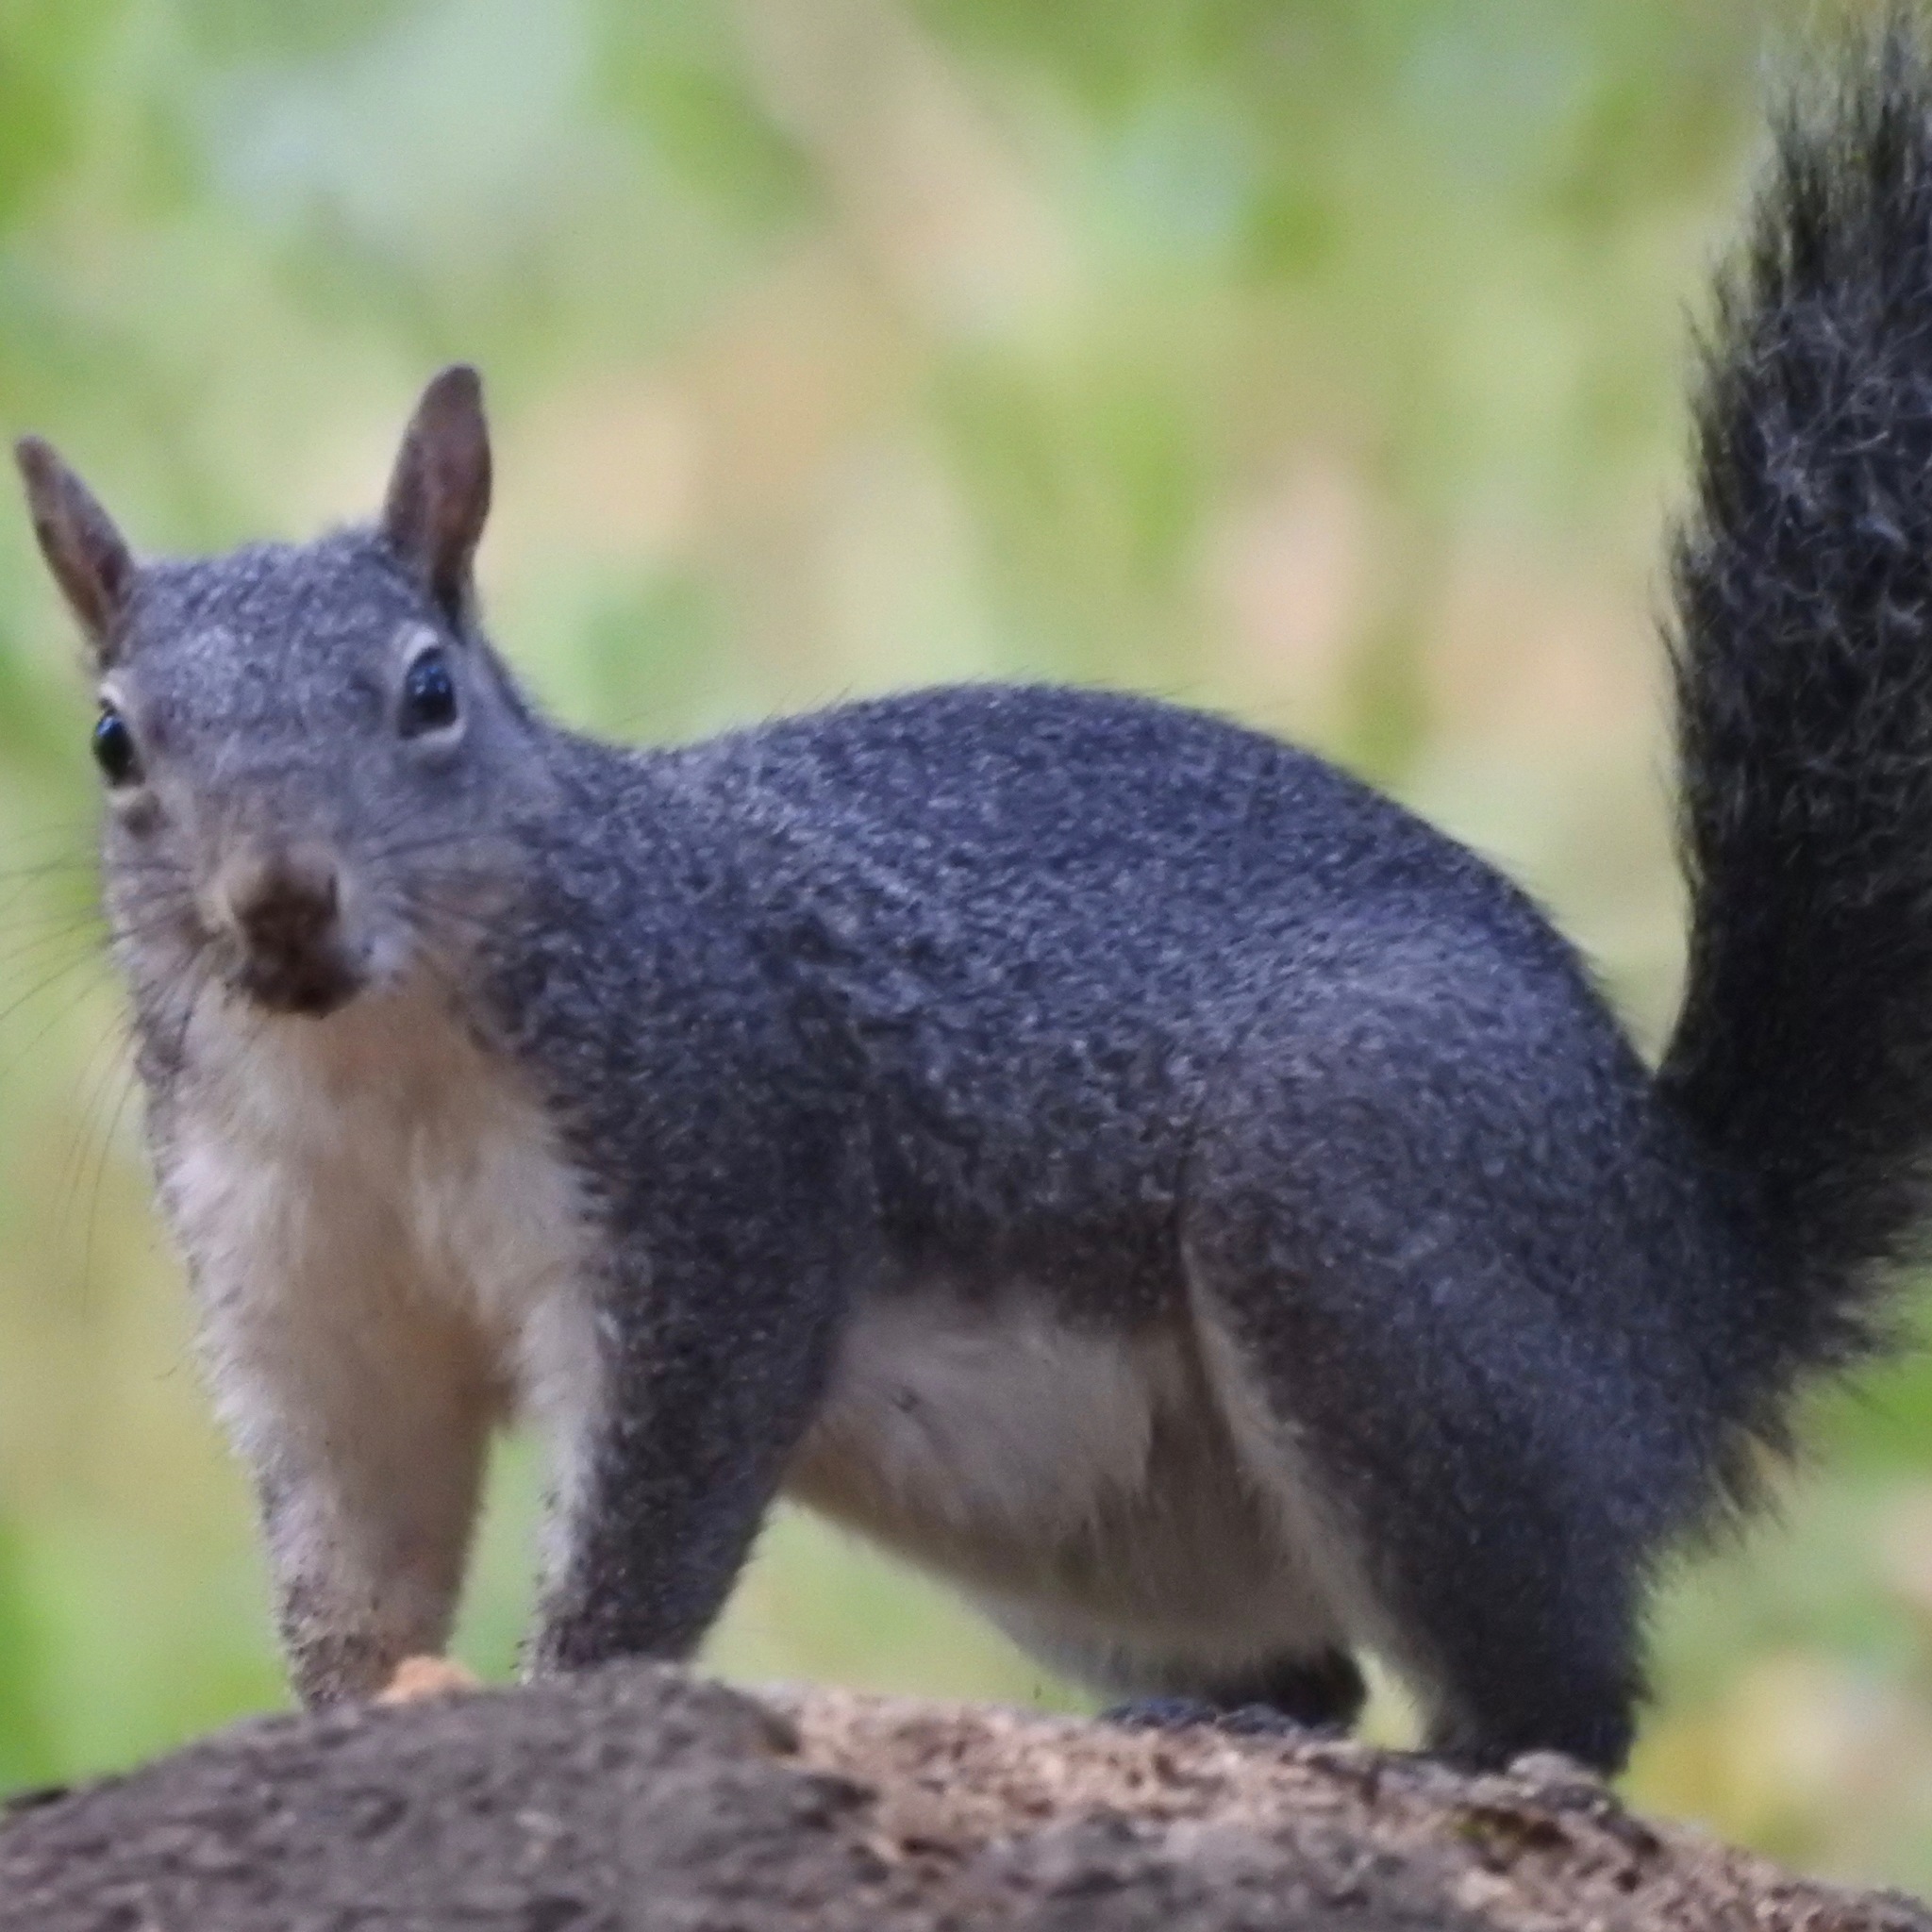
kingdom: Animalia
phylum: Chordata
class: Mammalia
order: Rodentia
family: Sciuridae
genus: Sciurus
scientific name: Sciurus griseus
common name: Western gray squirrel
